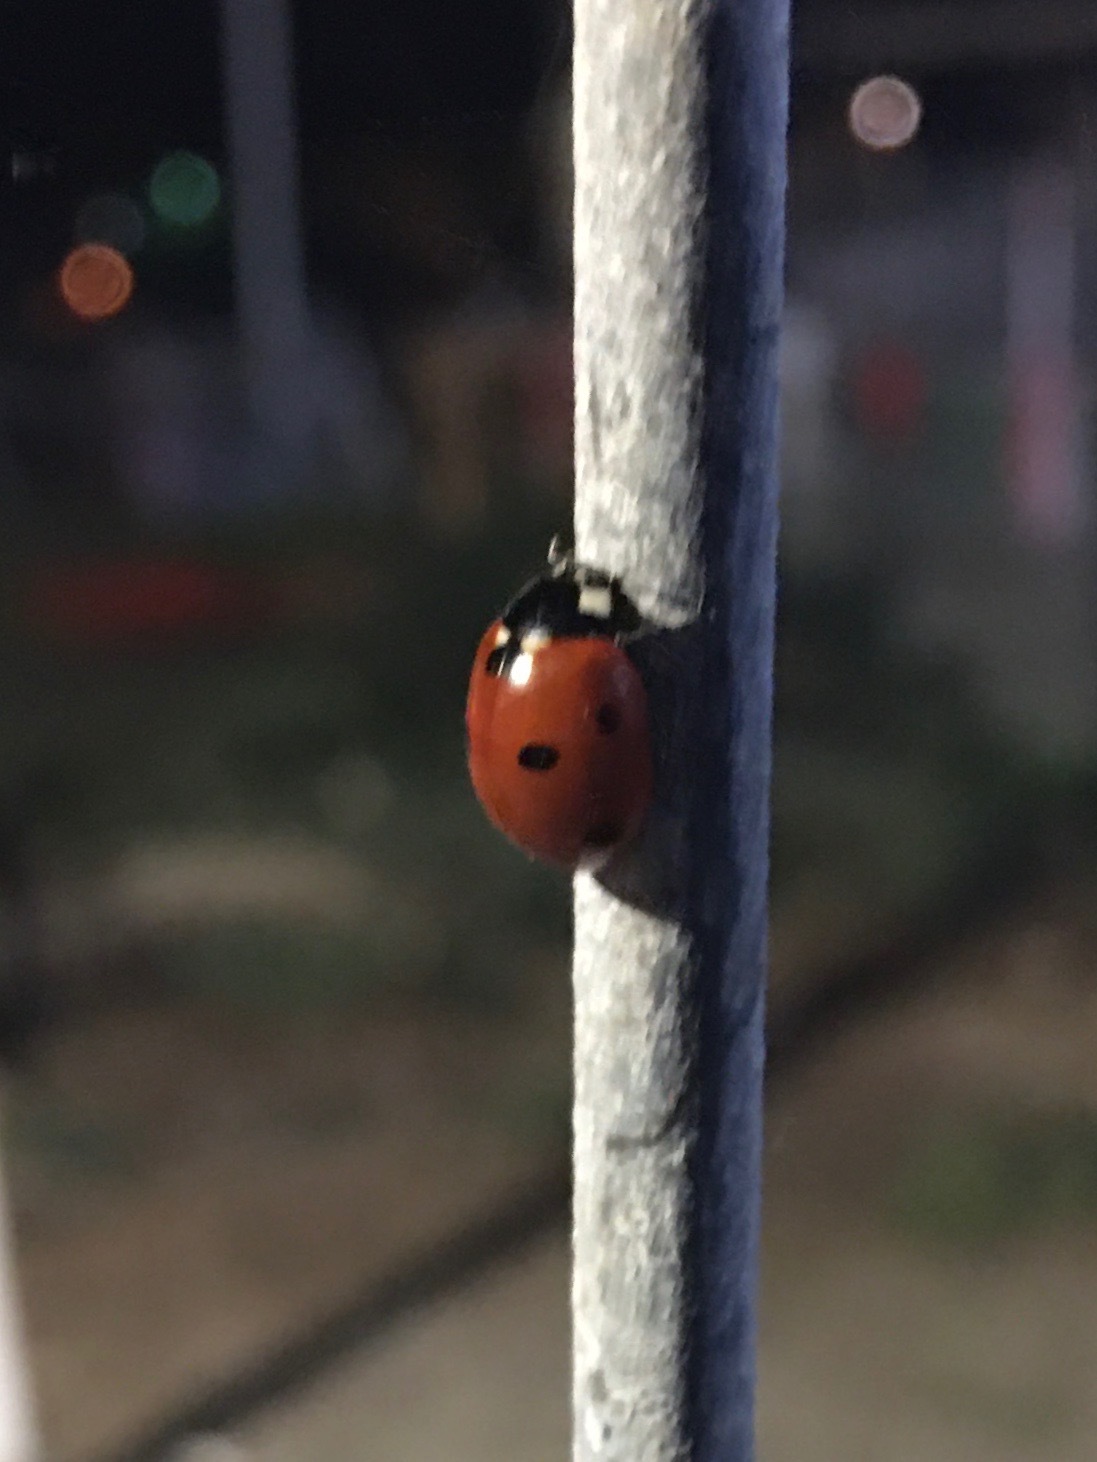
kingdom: Animalia
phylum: Arthropoda
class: Insecta
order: Coleoptera
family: Coccinellidae
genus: Coccinella
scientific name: Coccinella septempunctata
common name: Sevenspotted lady beetle
